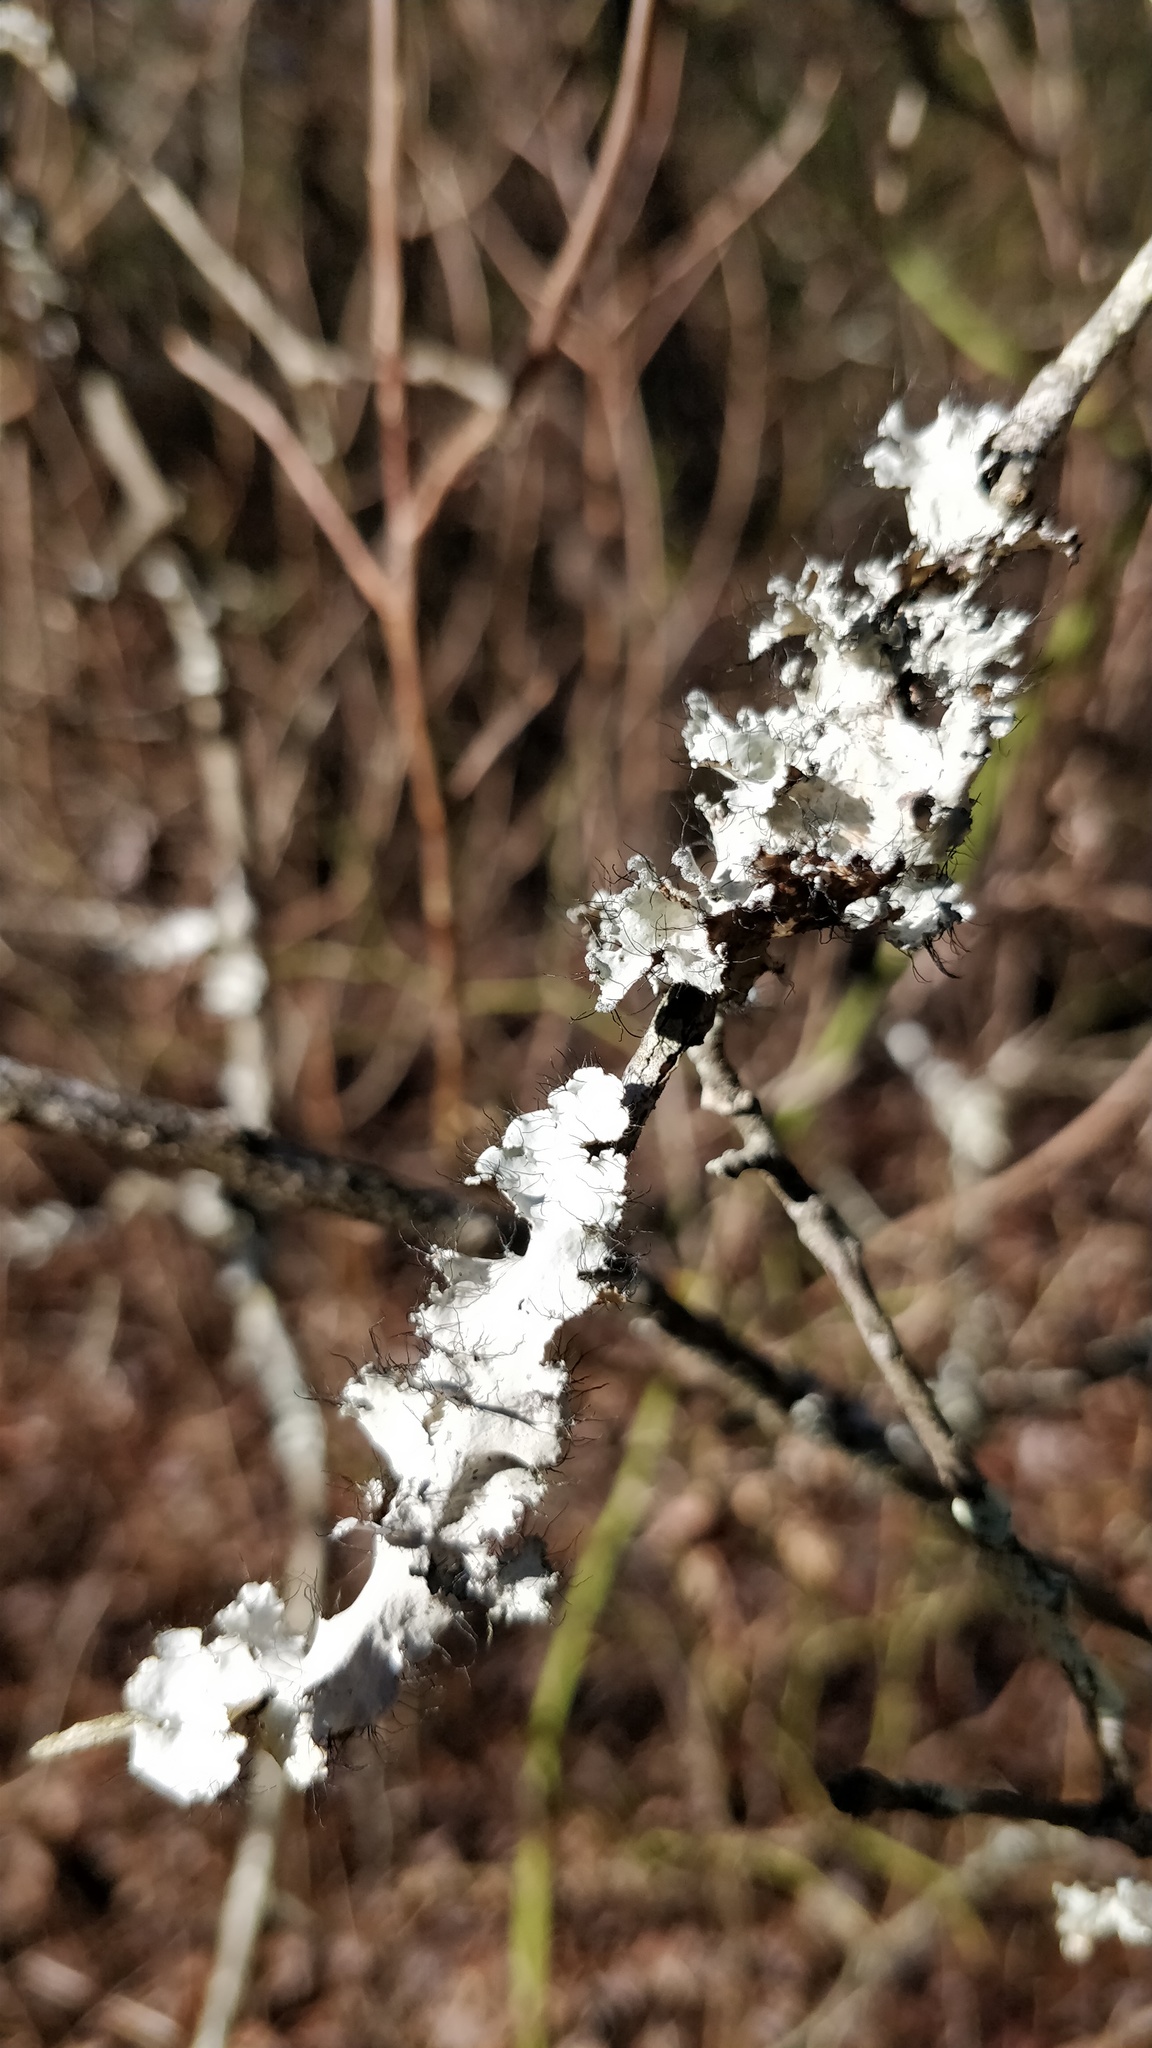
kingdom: Fungi
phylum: Ascomycota
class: Lecanoromycetes
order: Lecanorales
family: Parmeliaceae
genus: Parmotrema
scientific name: Parmotrema hypotropum
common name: Powdered ruffle lichen
